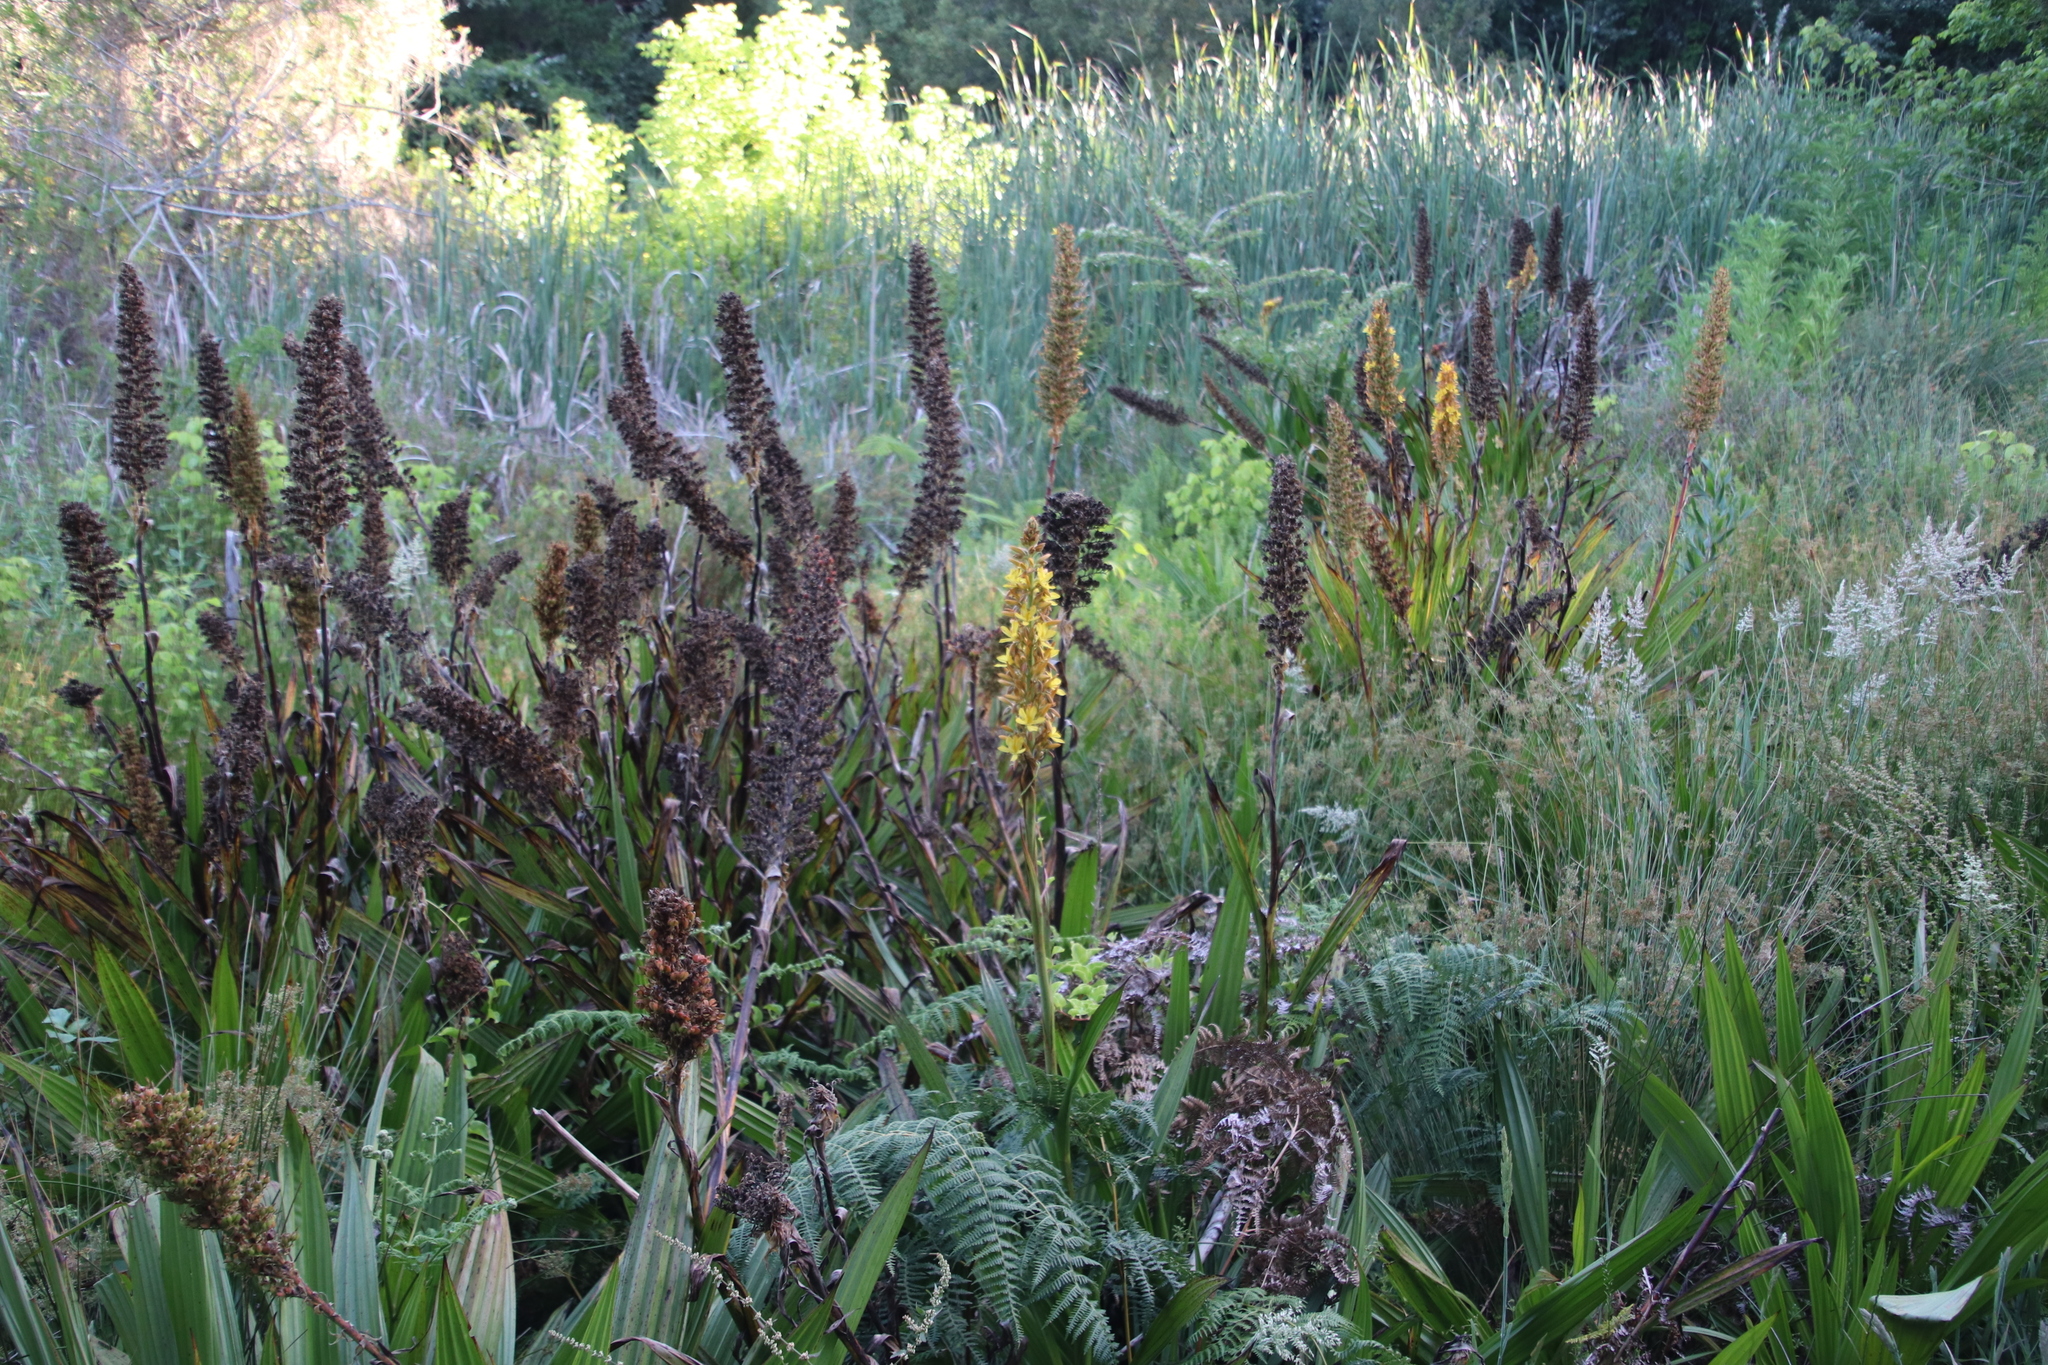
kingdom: Plantae
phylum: Tracheophyta
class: Liliopsida
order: Commelinales
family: Haemodoraceae
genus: Wachendorfia
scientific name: Wachendorfia thyrsiflora
